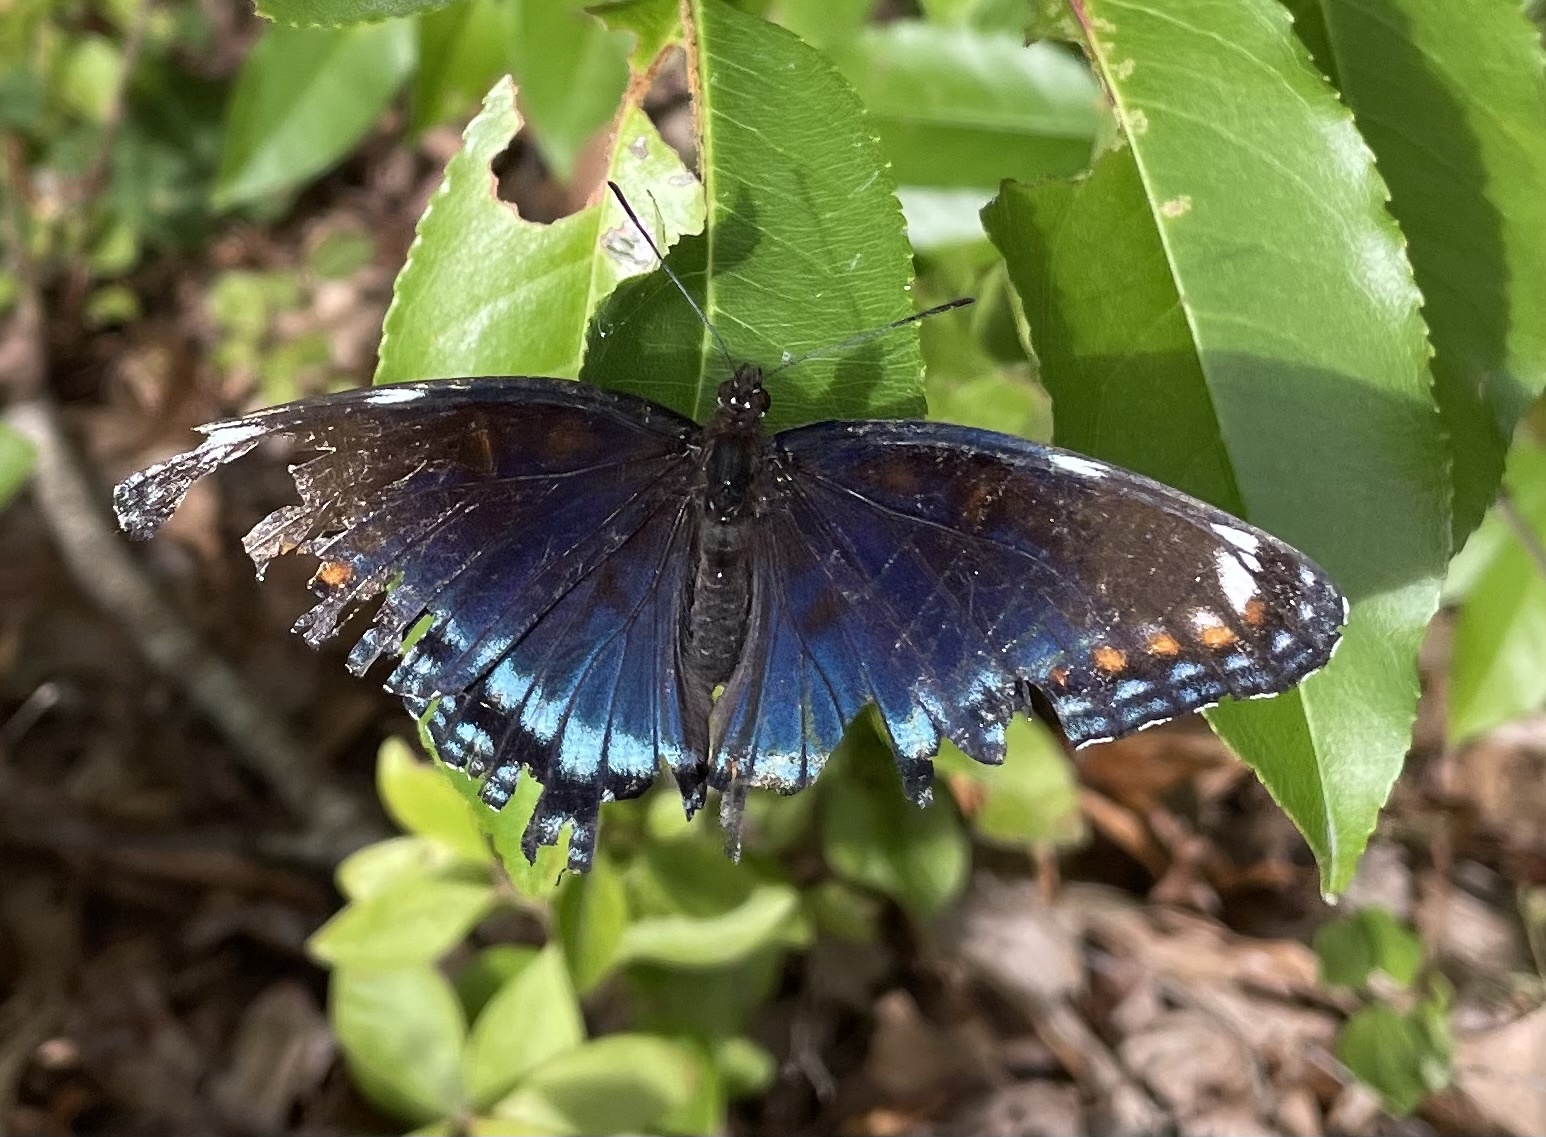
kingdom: Animalia
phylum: Arthropoda
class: Insecta
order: Lepidoptera
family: Nymphalidae
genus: Limenitis
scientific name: Limenitis arthemis
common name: Red-spotted admiral
